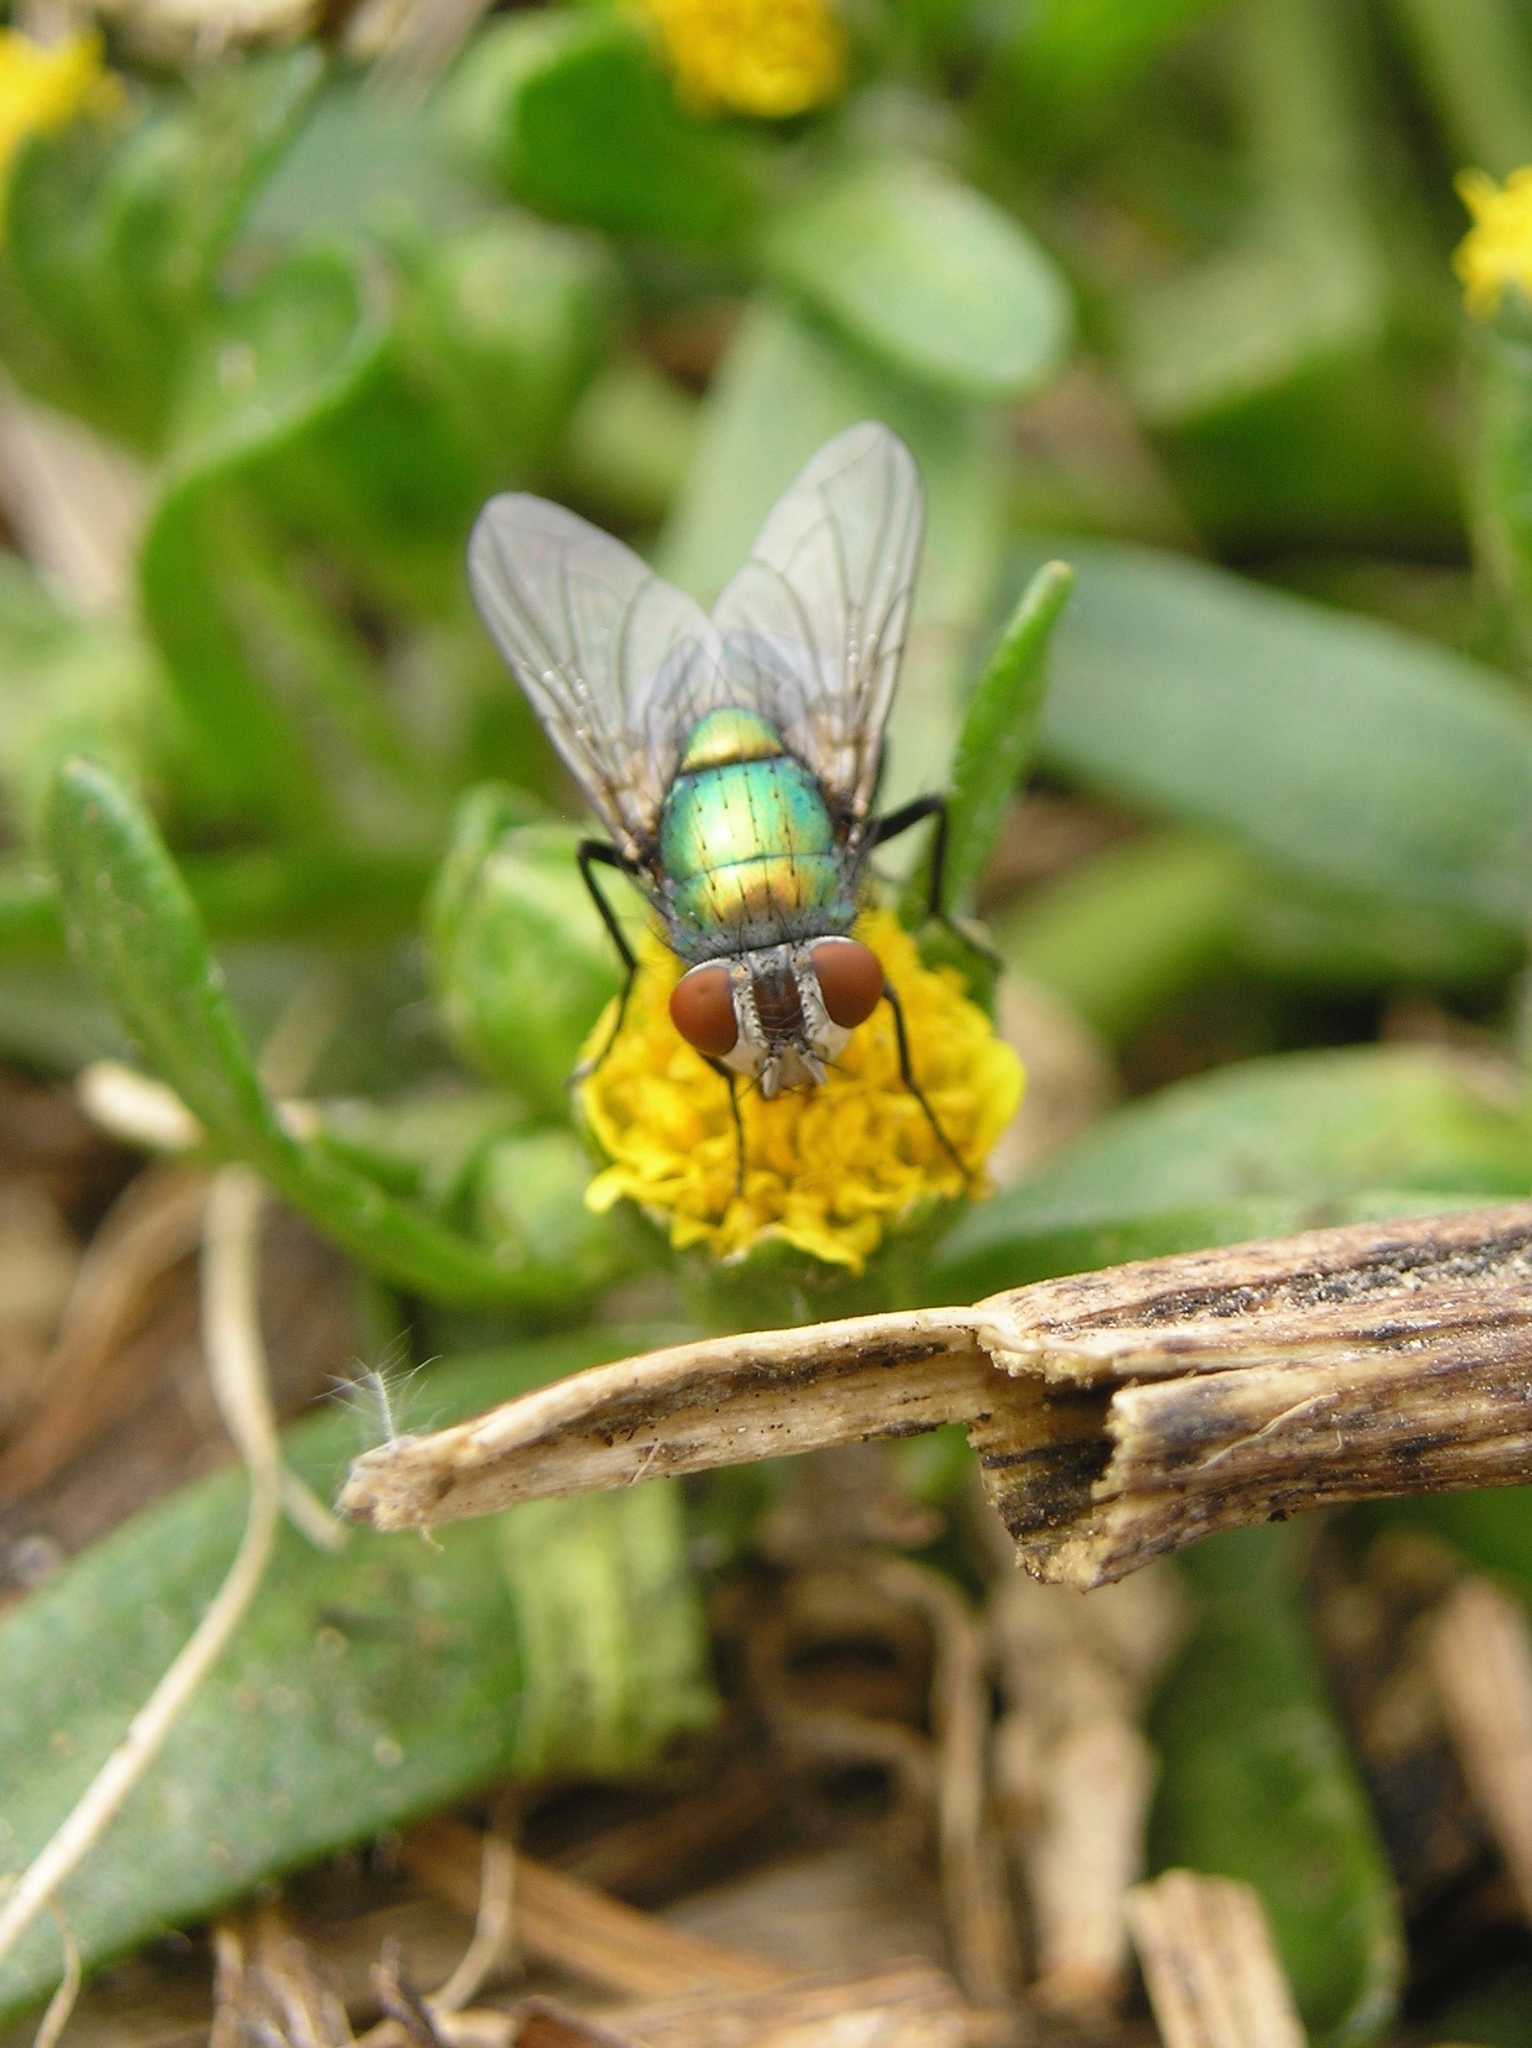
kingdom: Animalia
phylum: Arthropoda
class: Insecta
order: Diptera
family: Calliphoridae
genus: Lucilia
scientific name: Lucilia sericata
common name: Blow fly
